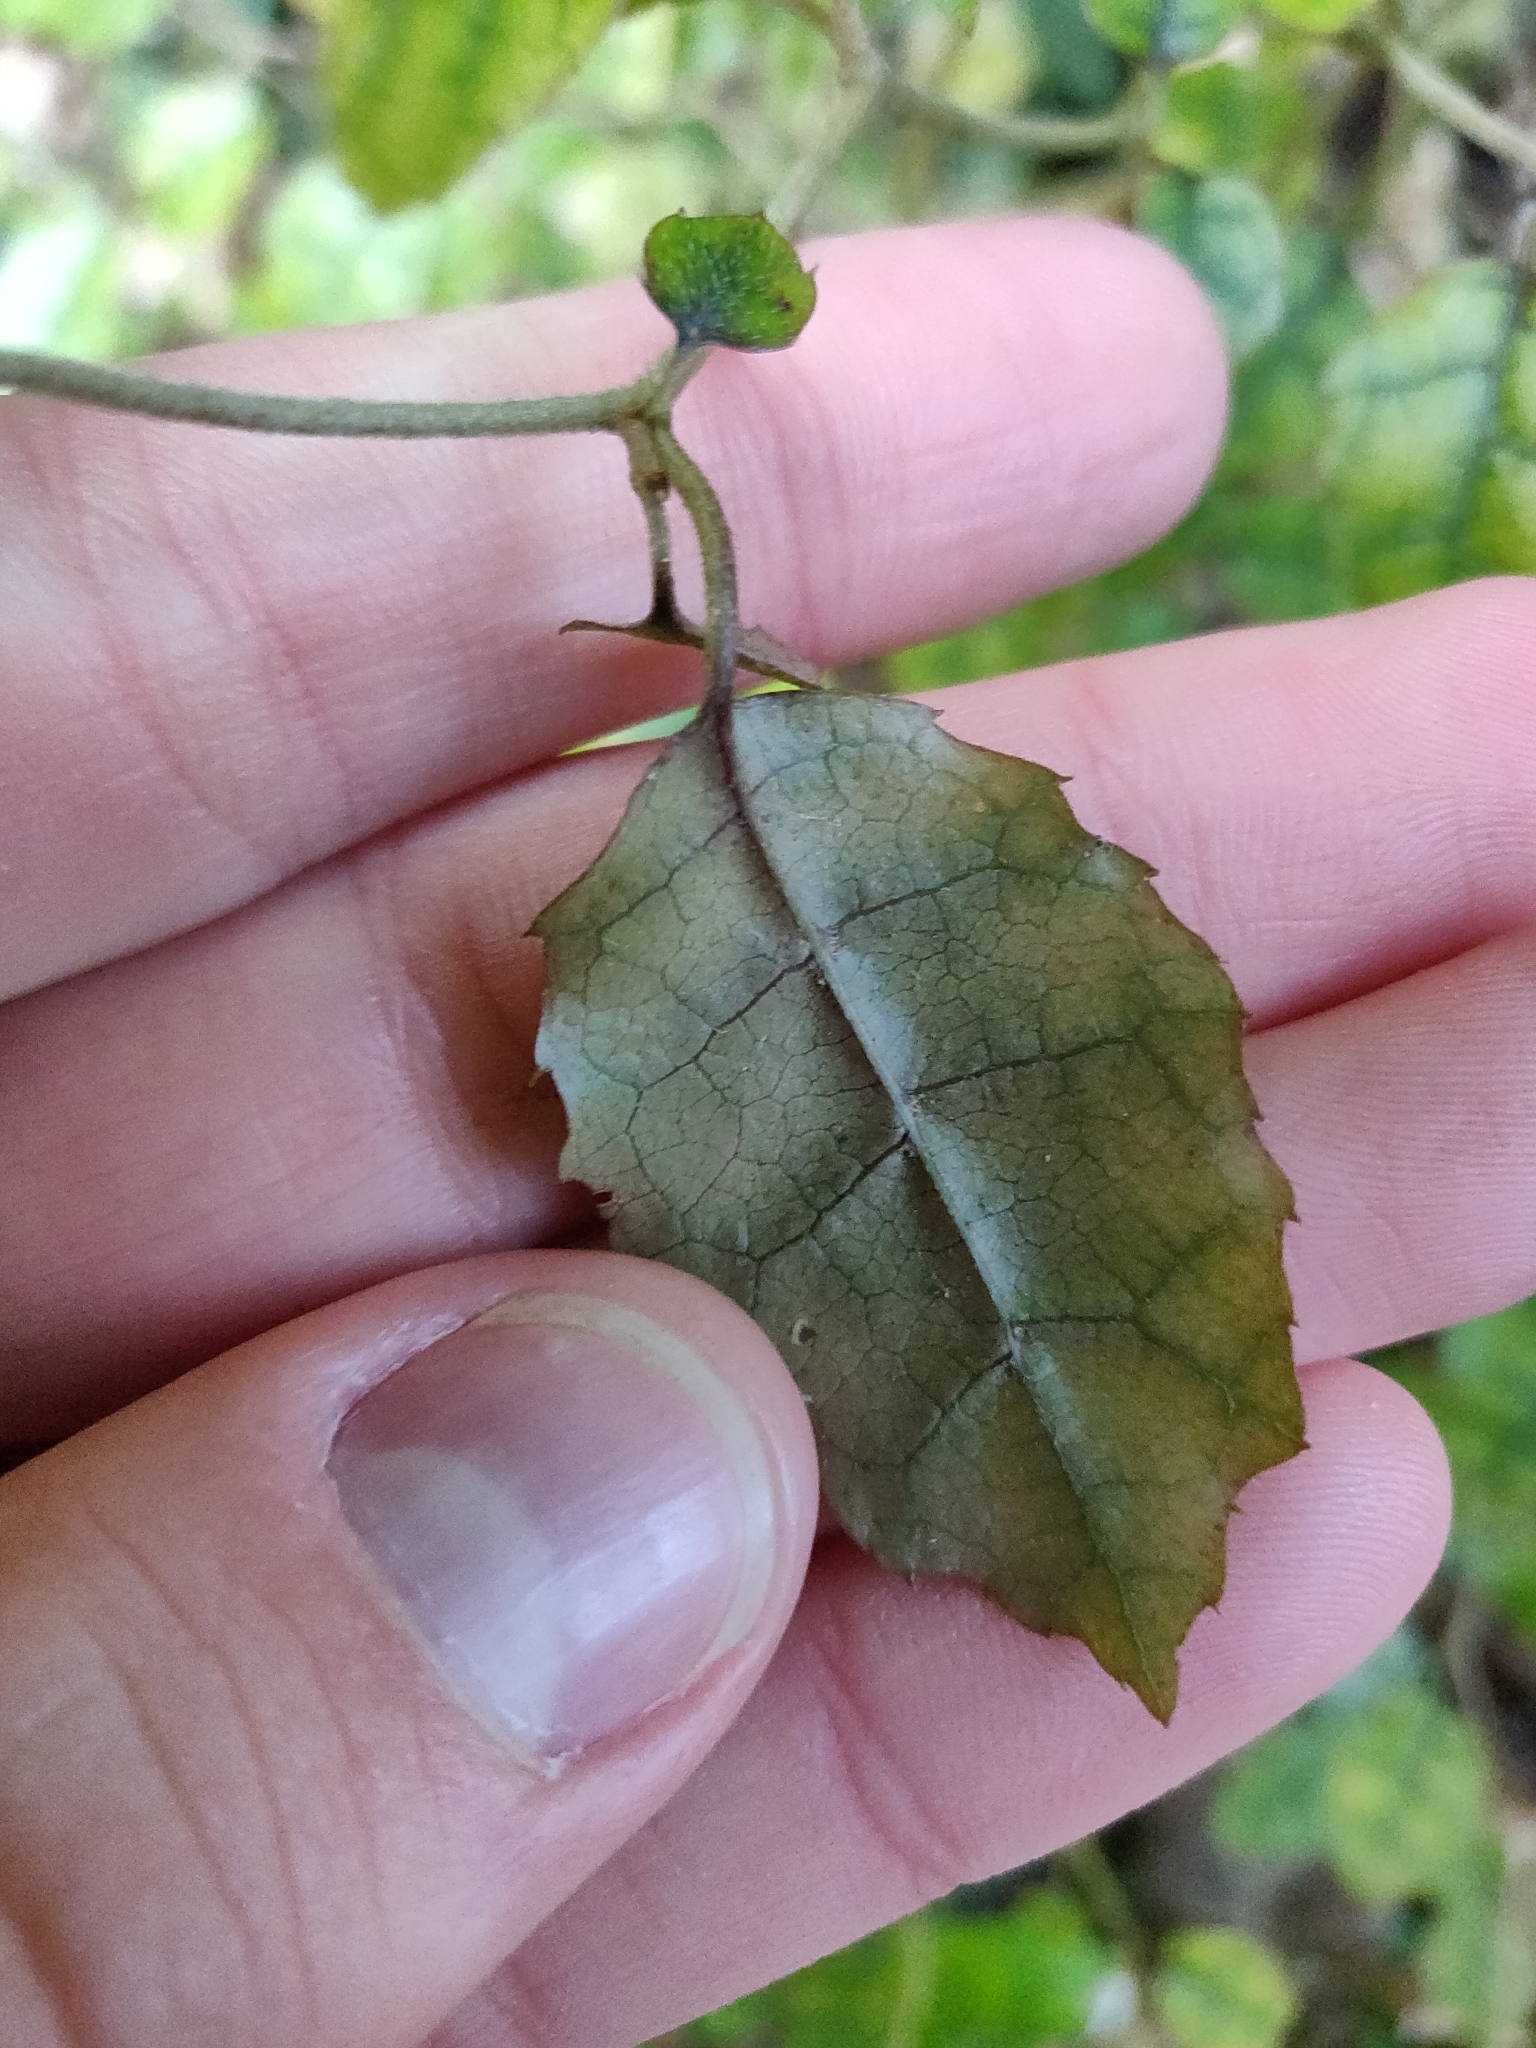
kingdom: Plantae
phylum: Tracheophyta
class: Magnoliopsida
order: Asterales
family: Rousseaceae
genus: Carpodetus
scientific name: Carpodetus serratus
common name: White mapau
